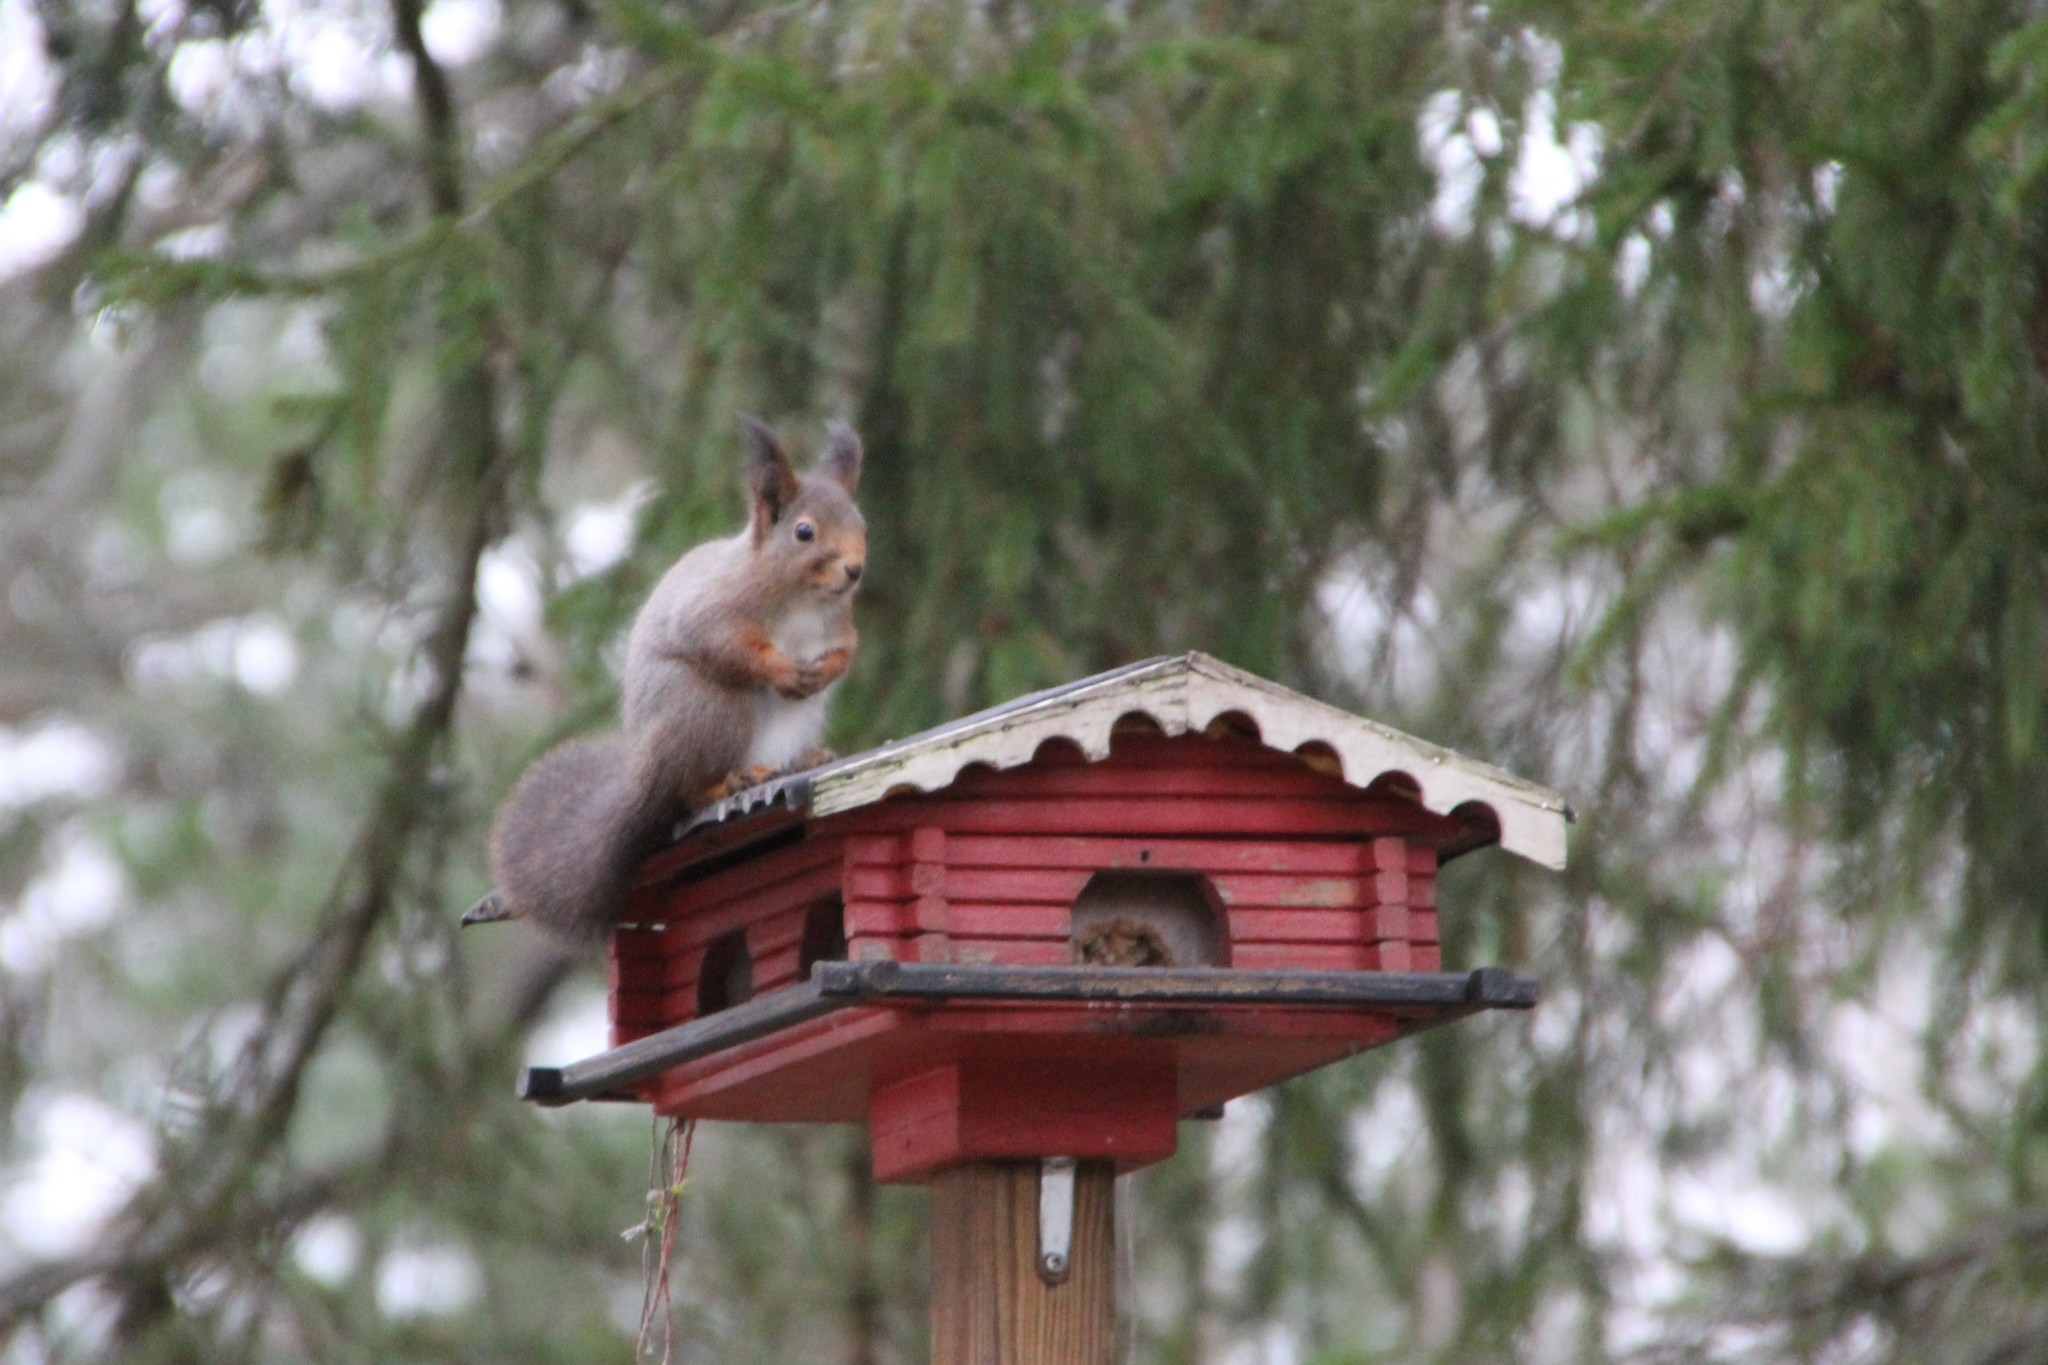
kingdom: Animalia
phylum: Chordata
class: Mammalia
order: Rodentia
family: Sciuridae
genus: Sciurus
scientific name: Sciurus vulgaris
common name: Eurasian red squirrel
